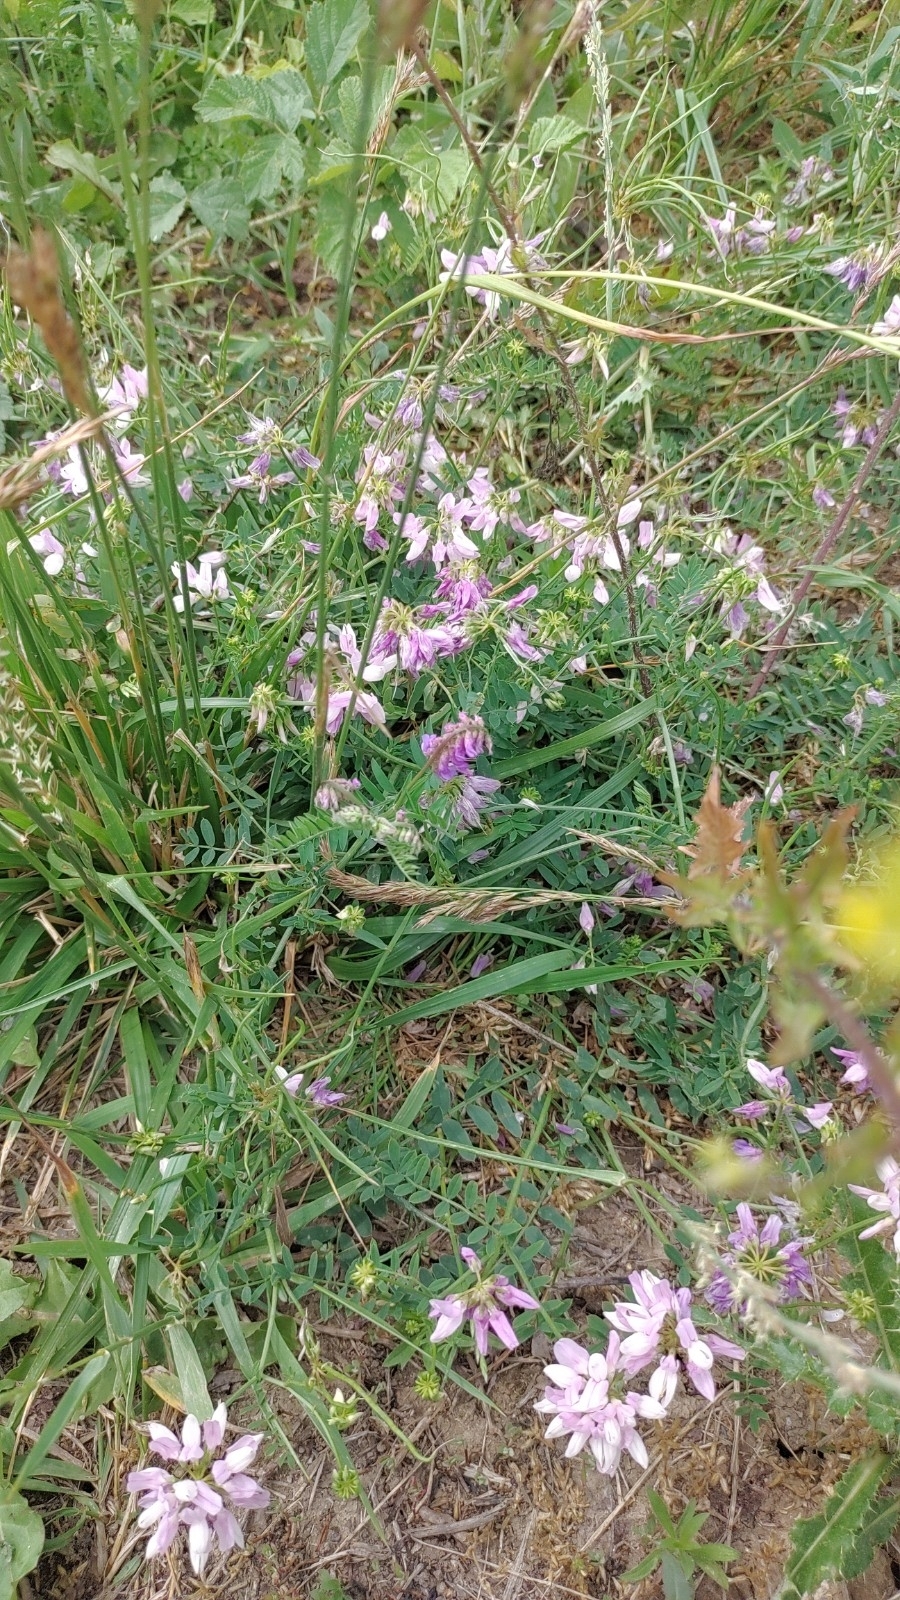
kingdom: Plantae
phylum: Tracheophyta
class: Magnoliopsida
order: Fabales
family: Fabaceae
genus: Coronilla
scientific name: Coronilla varia
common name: Crownvetch
